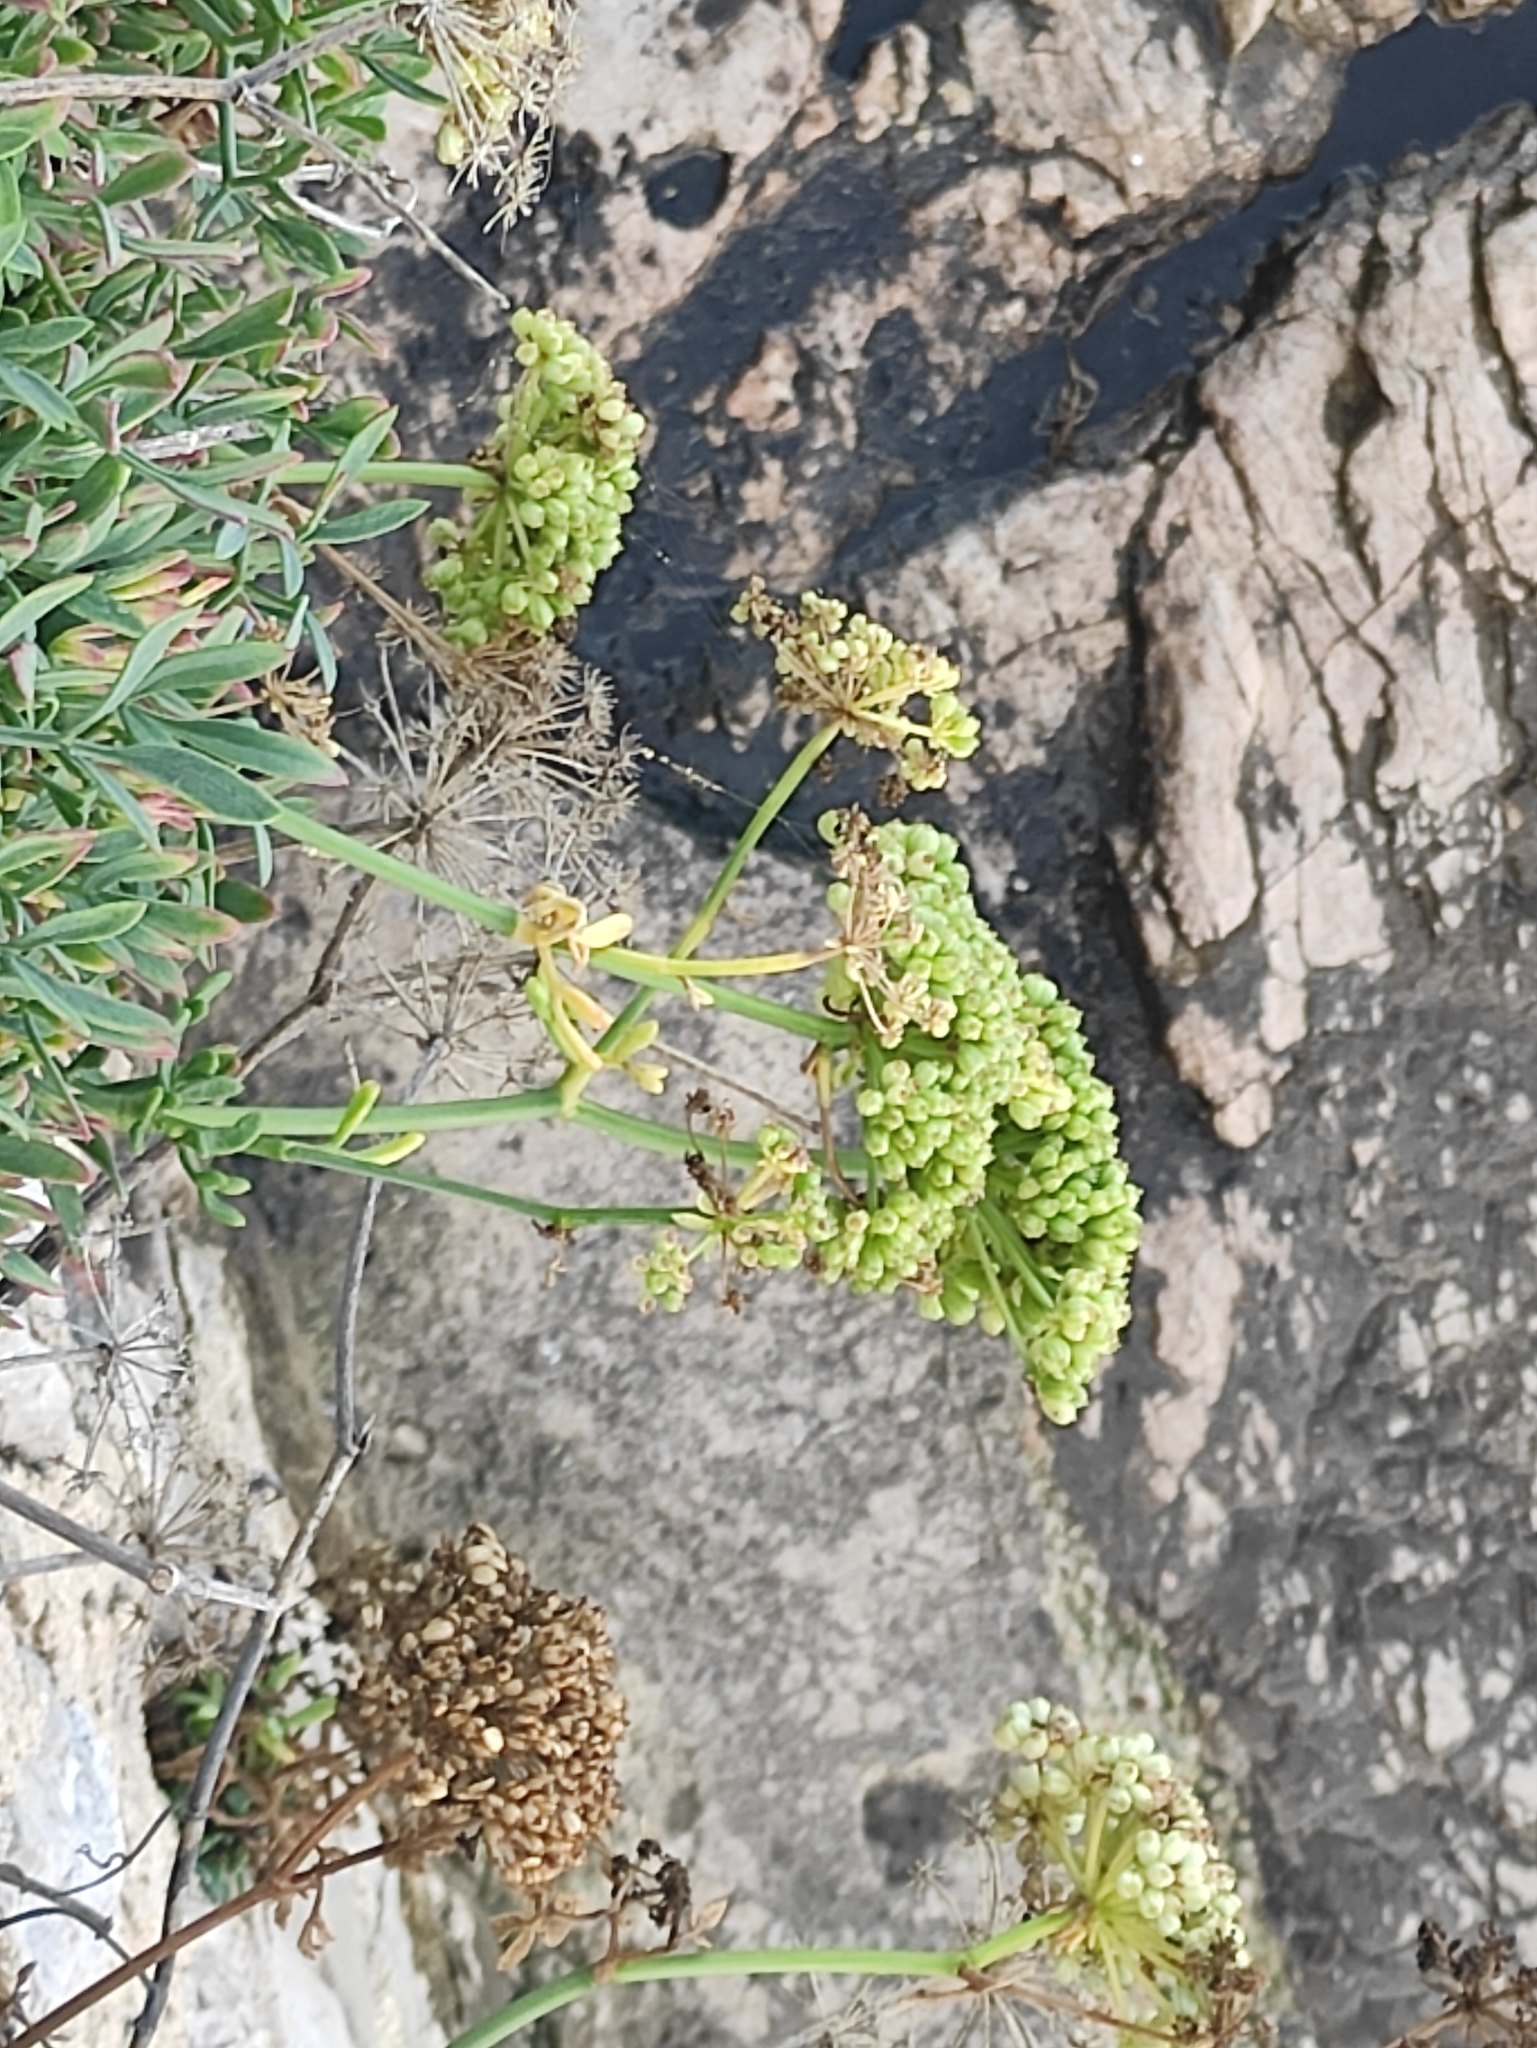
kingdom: Plantae
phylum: Tracheophyta
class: Magnoliopsida
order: Apiales
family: Apiaceae
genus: Crithmum
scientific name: Crithmum maritimum
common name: Rock samphire
